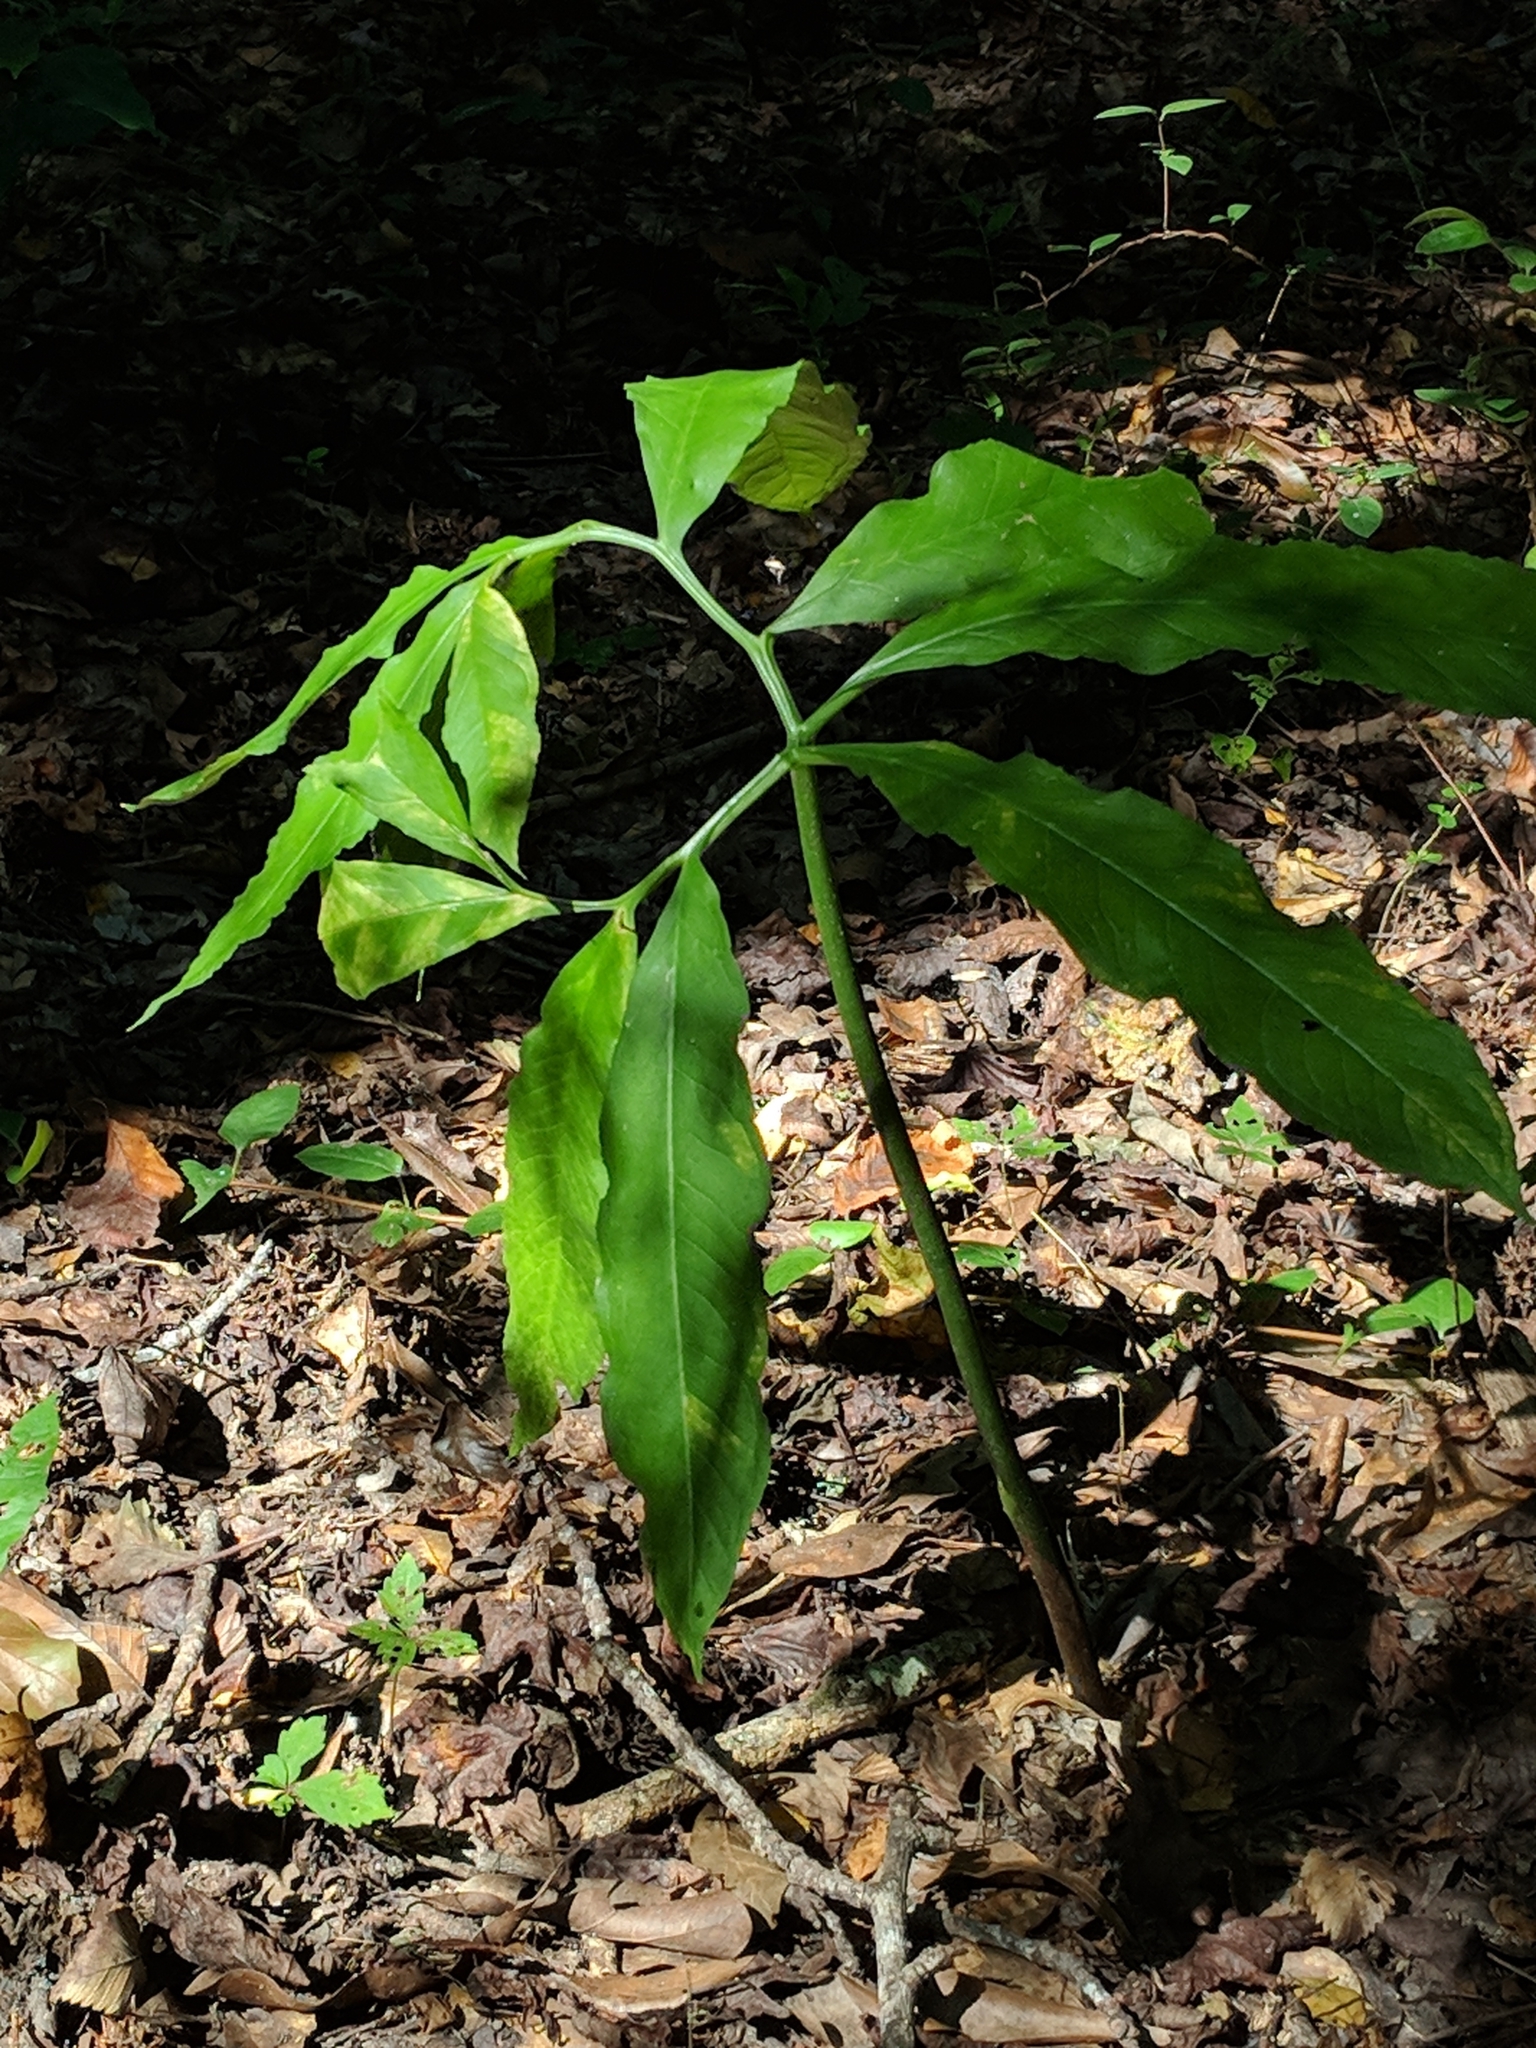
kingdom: Plantae
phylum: Tracheophyta
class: Liliopsida
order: Alismatales
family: Araceae
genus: Arisaema
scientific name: Arisaema dracontium
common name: Dragon-arum
